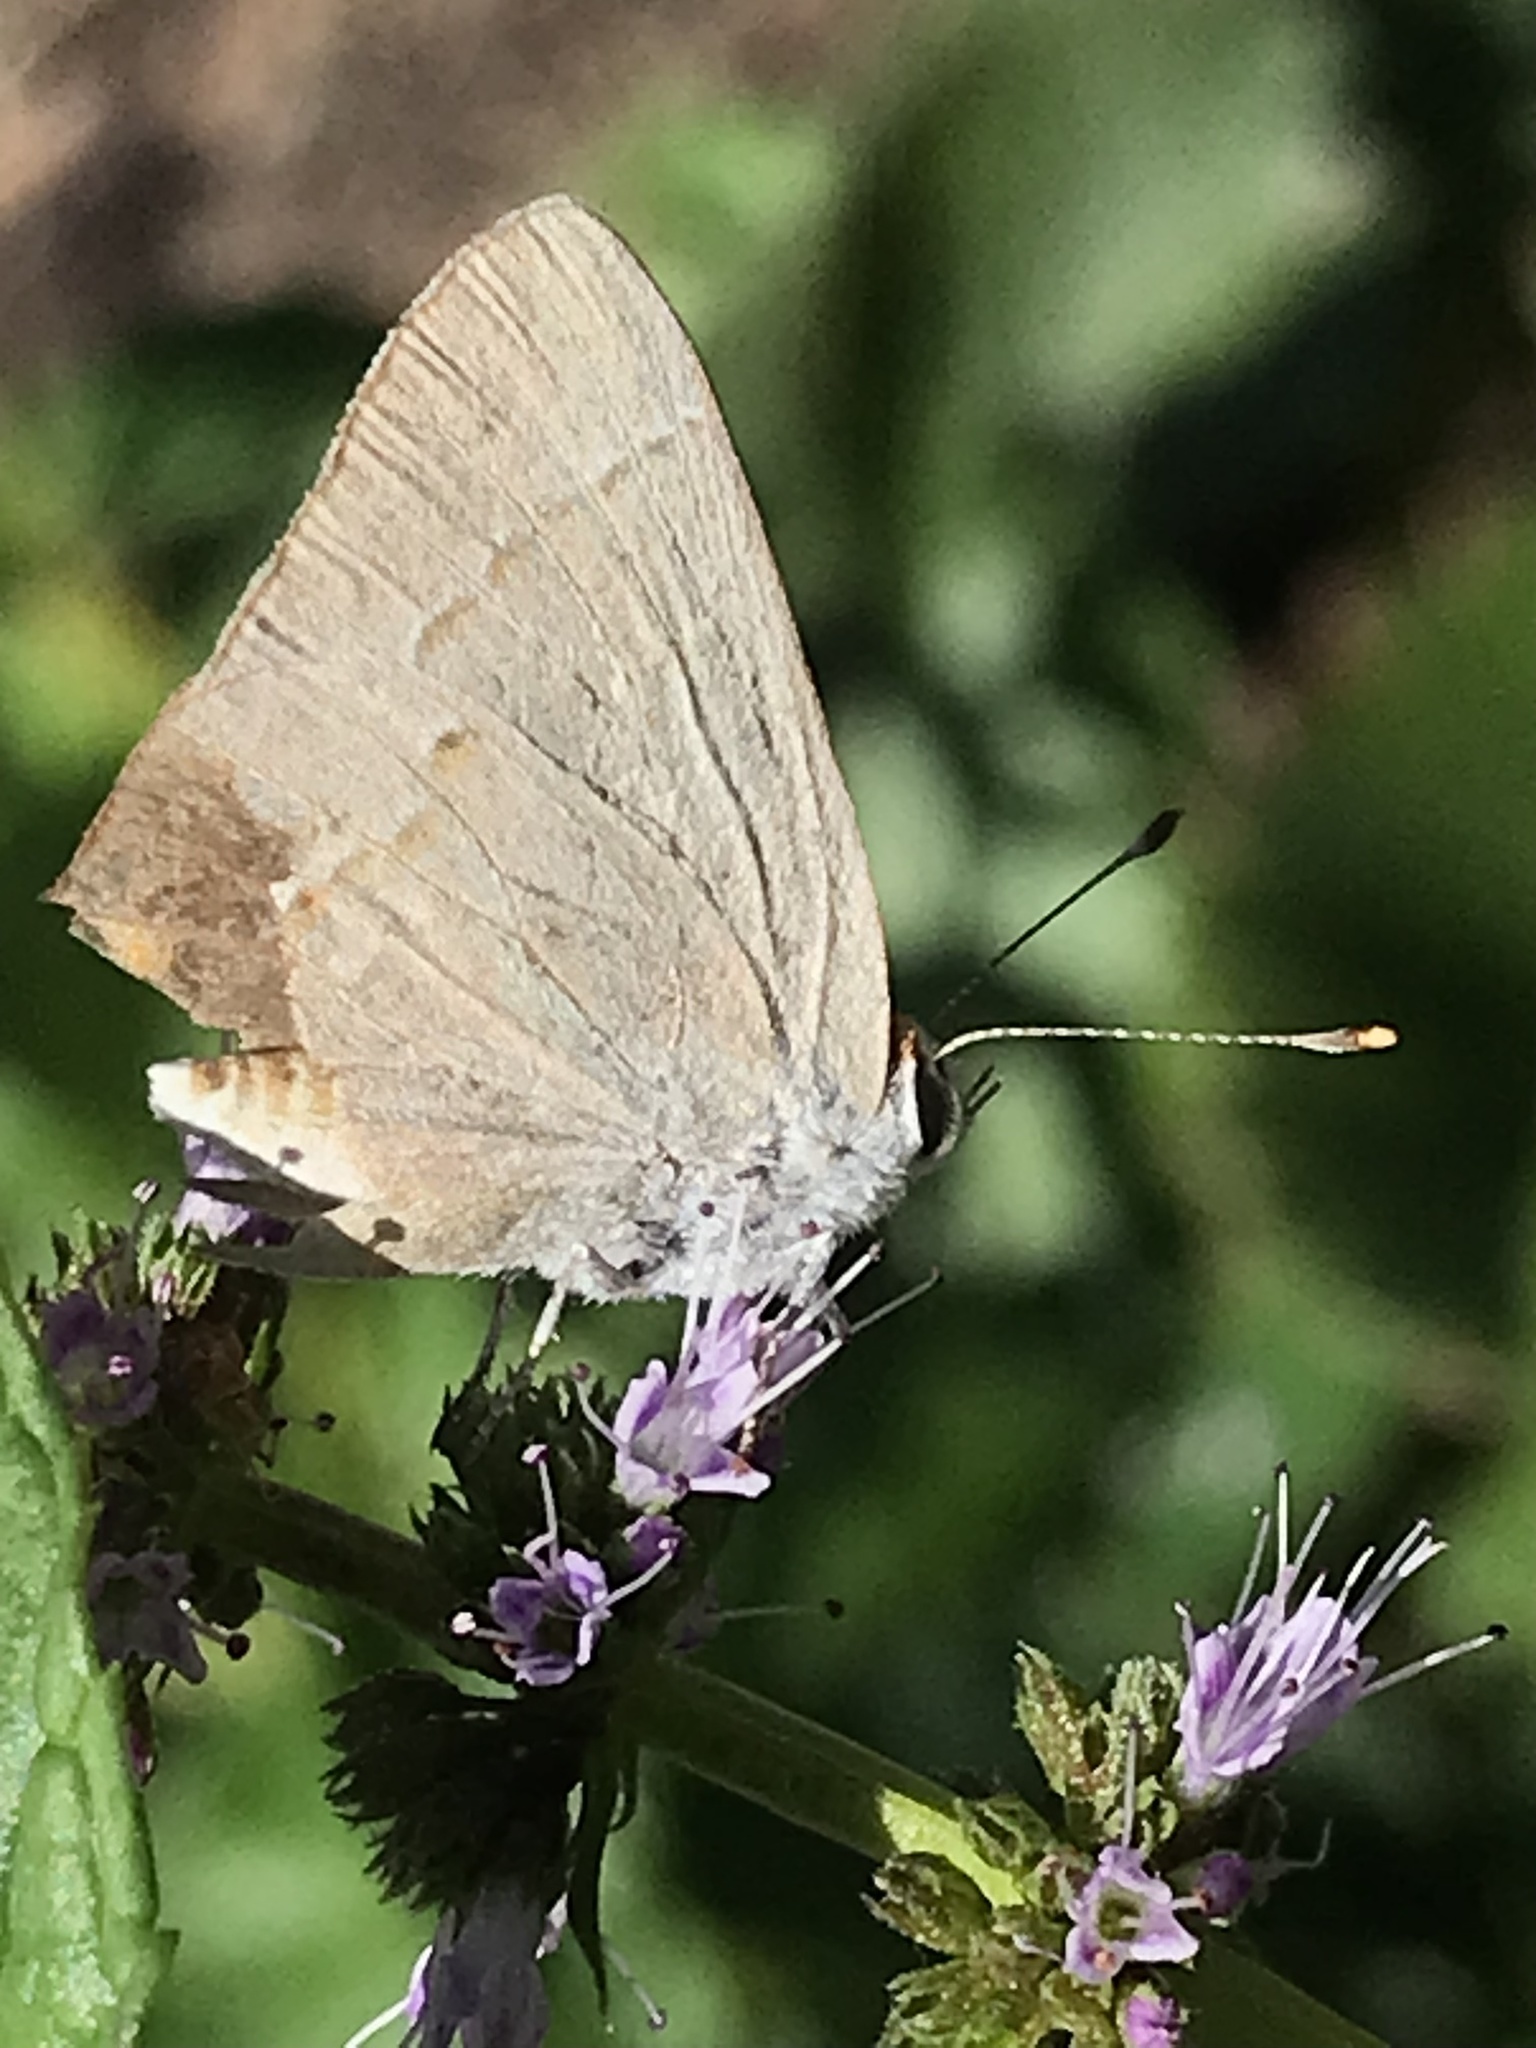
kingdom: Animalia
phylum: Arthropoda
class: Insecta
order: Lepidoptera
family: Lycaenidae
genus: Strymon
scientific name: Strymon melinus
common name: Gray hairstreak
